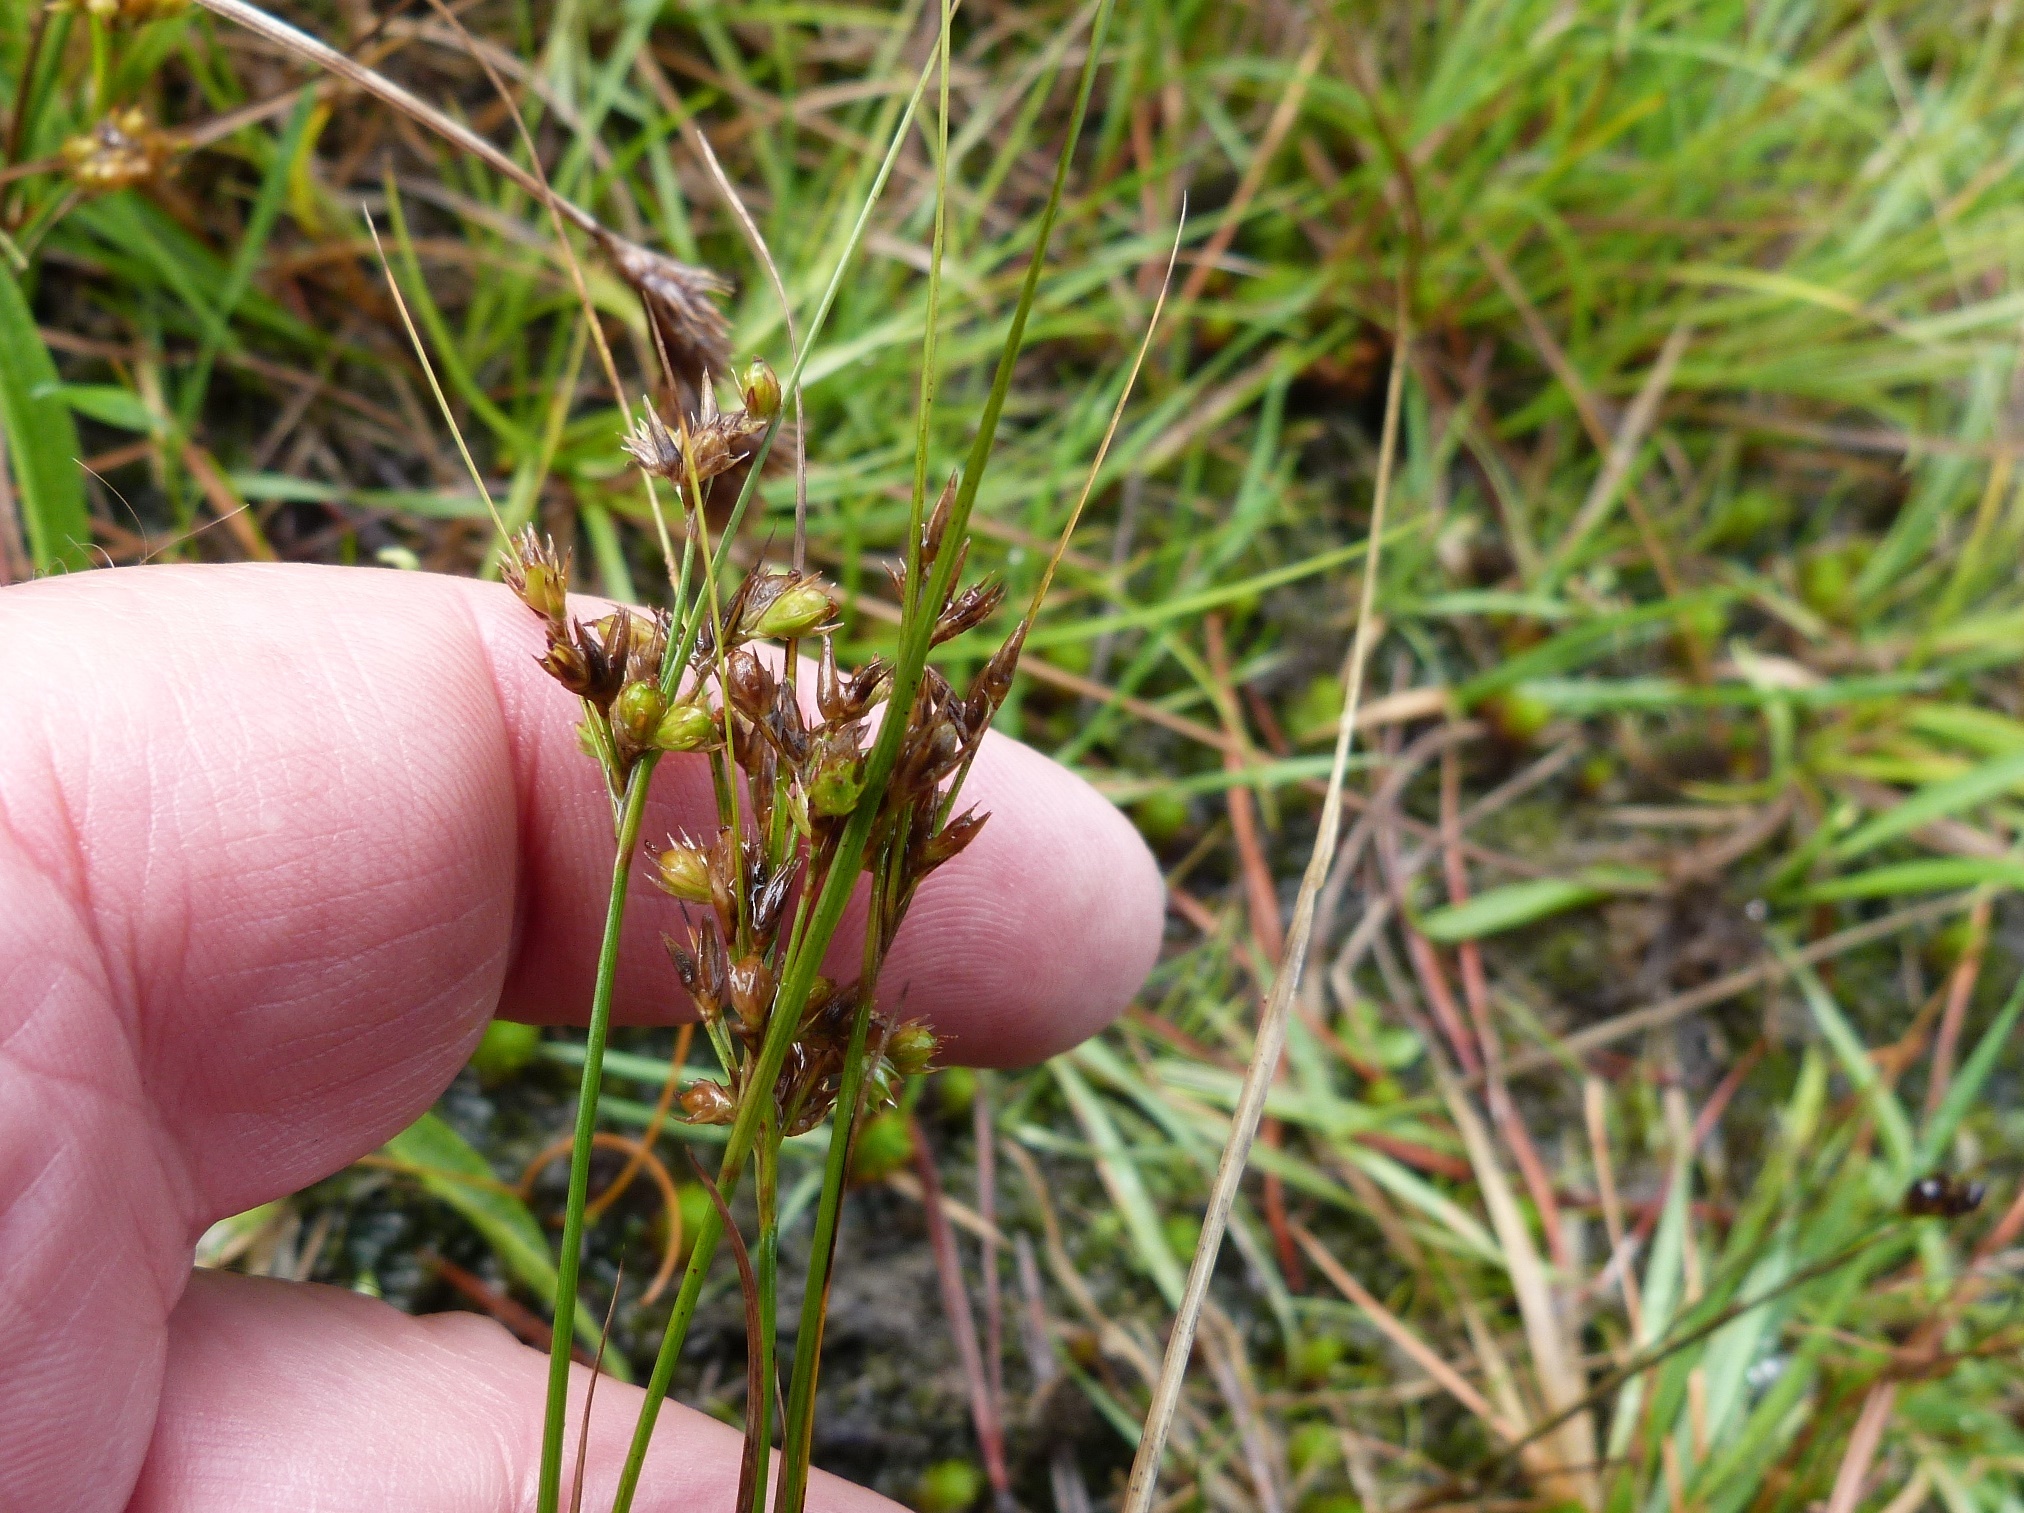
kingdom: Plantae
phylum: Tracheophyta
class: Liliopsida
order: Poales
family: Juncaceae
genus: Juncus
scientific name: Juncus tenuis
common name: Slender rush
